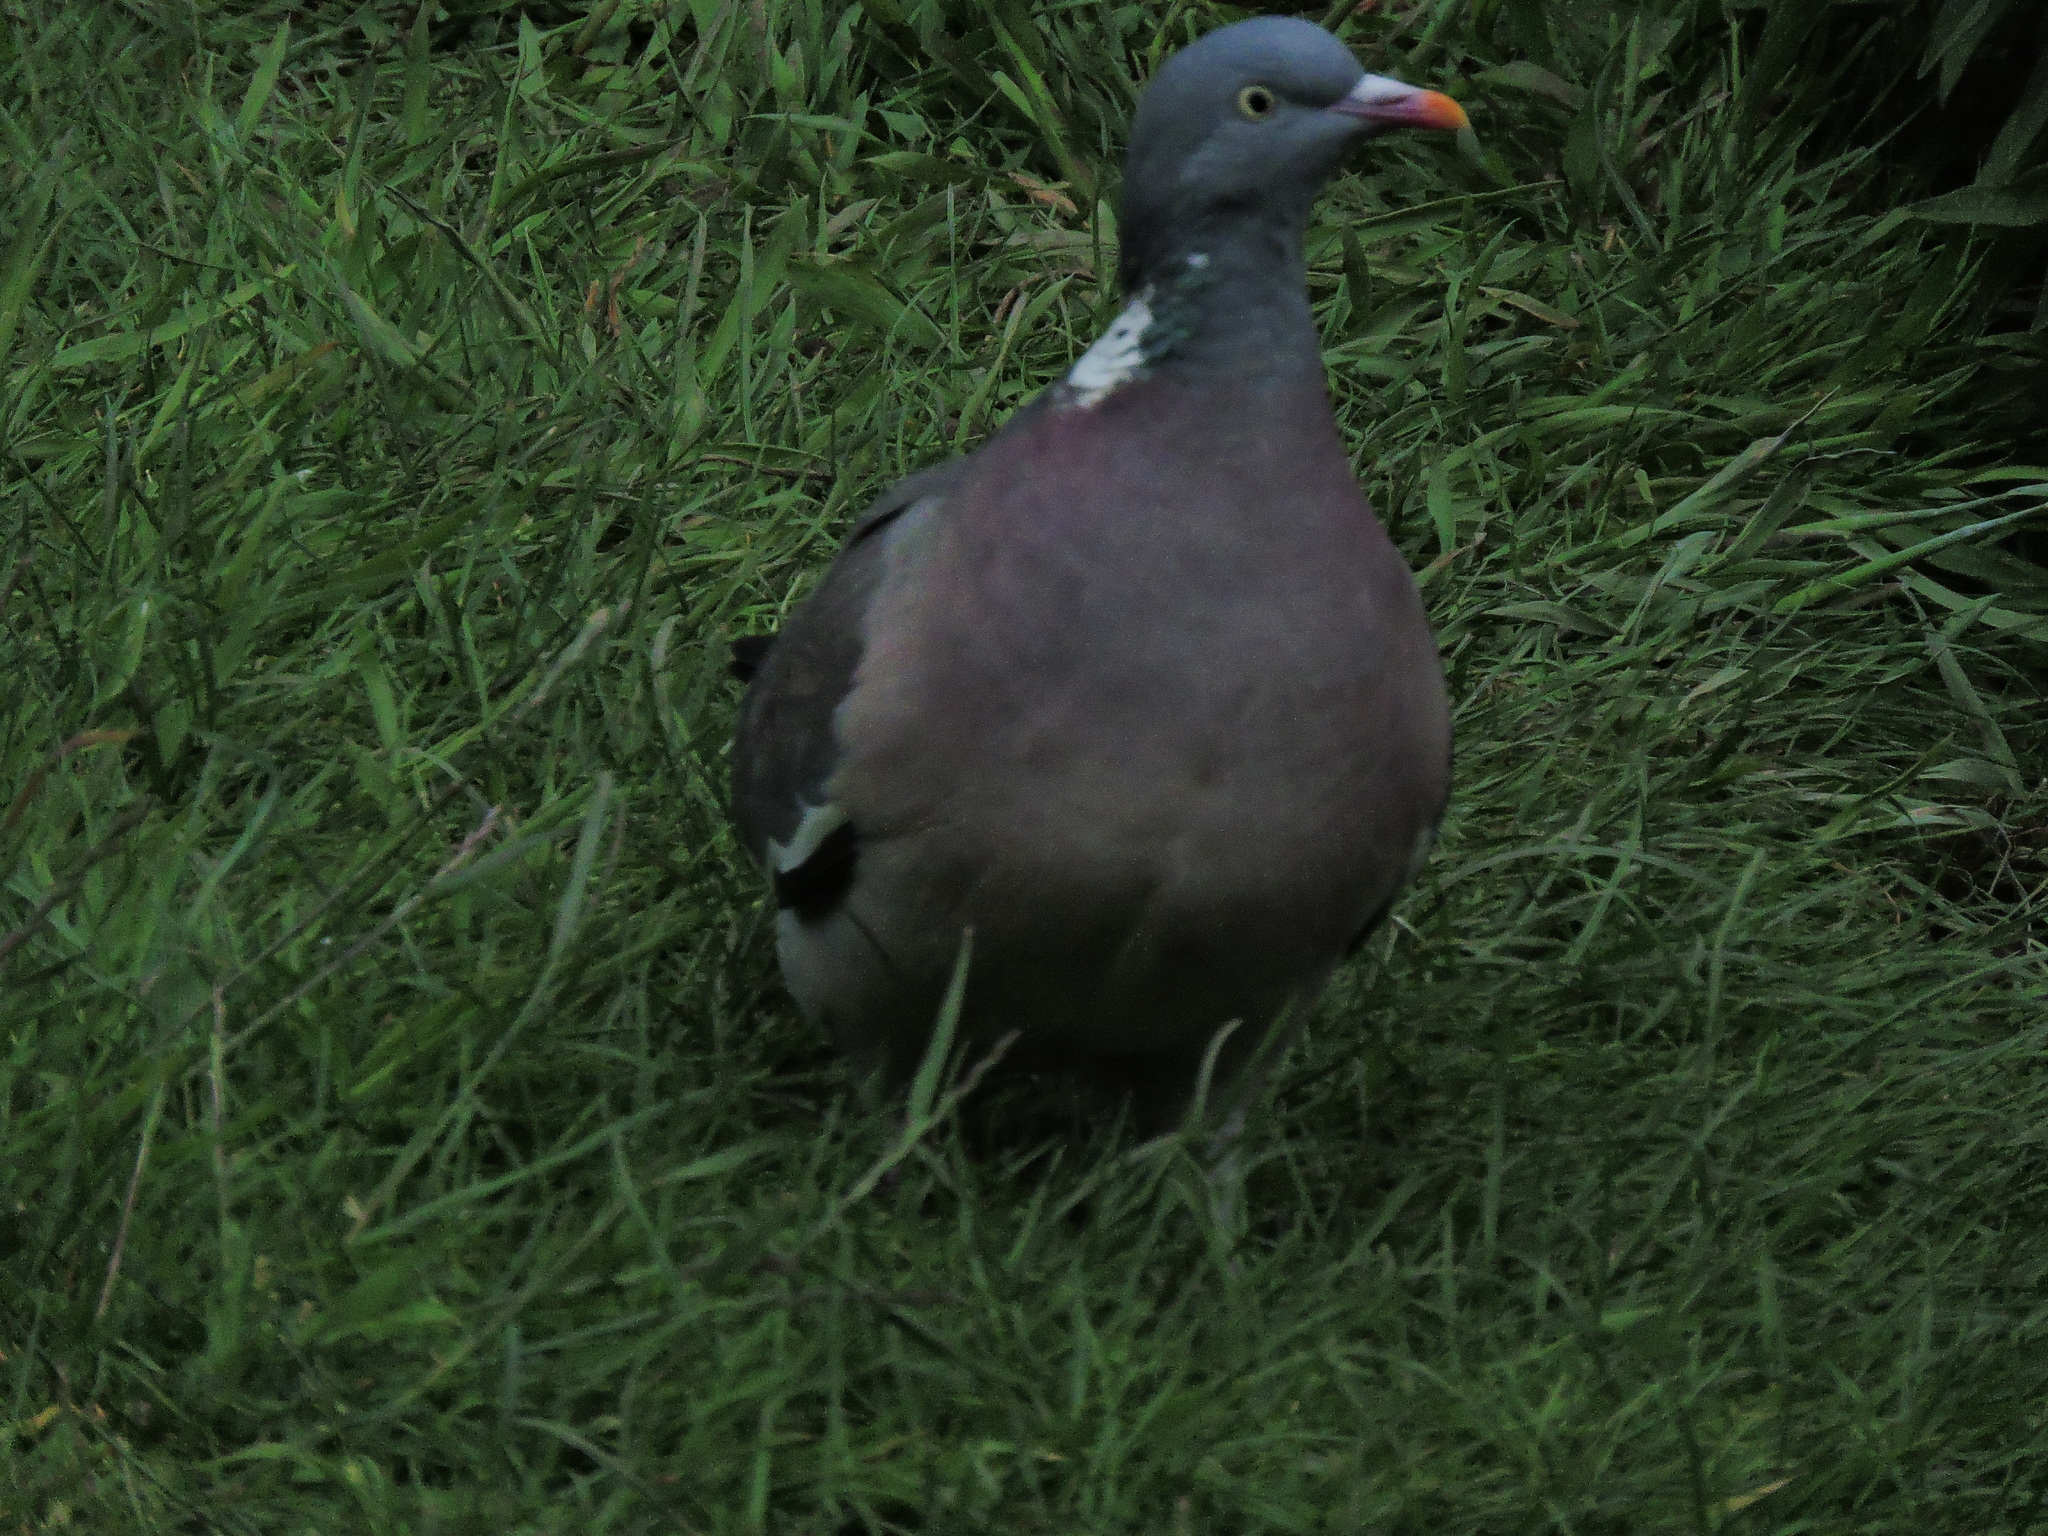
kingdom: Animalia
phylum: Chordata
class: Aves
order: Columbiformes
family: Columbidae
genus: Columba
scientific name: Columba palumbus
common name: Common wood pigeon
